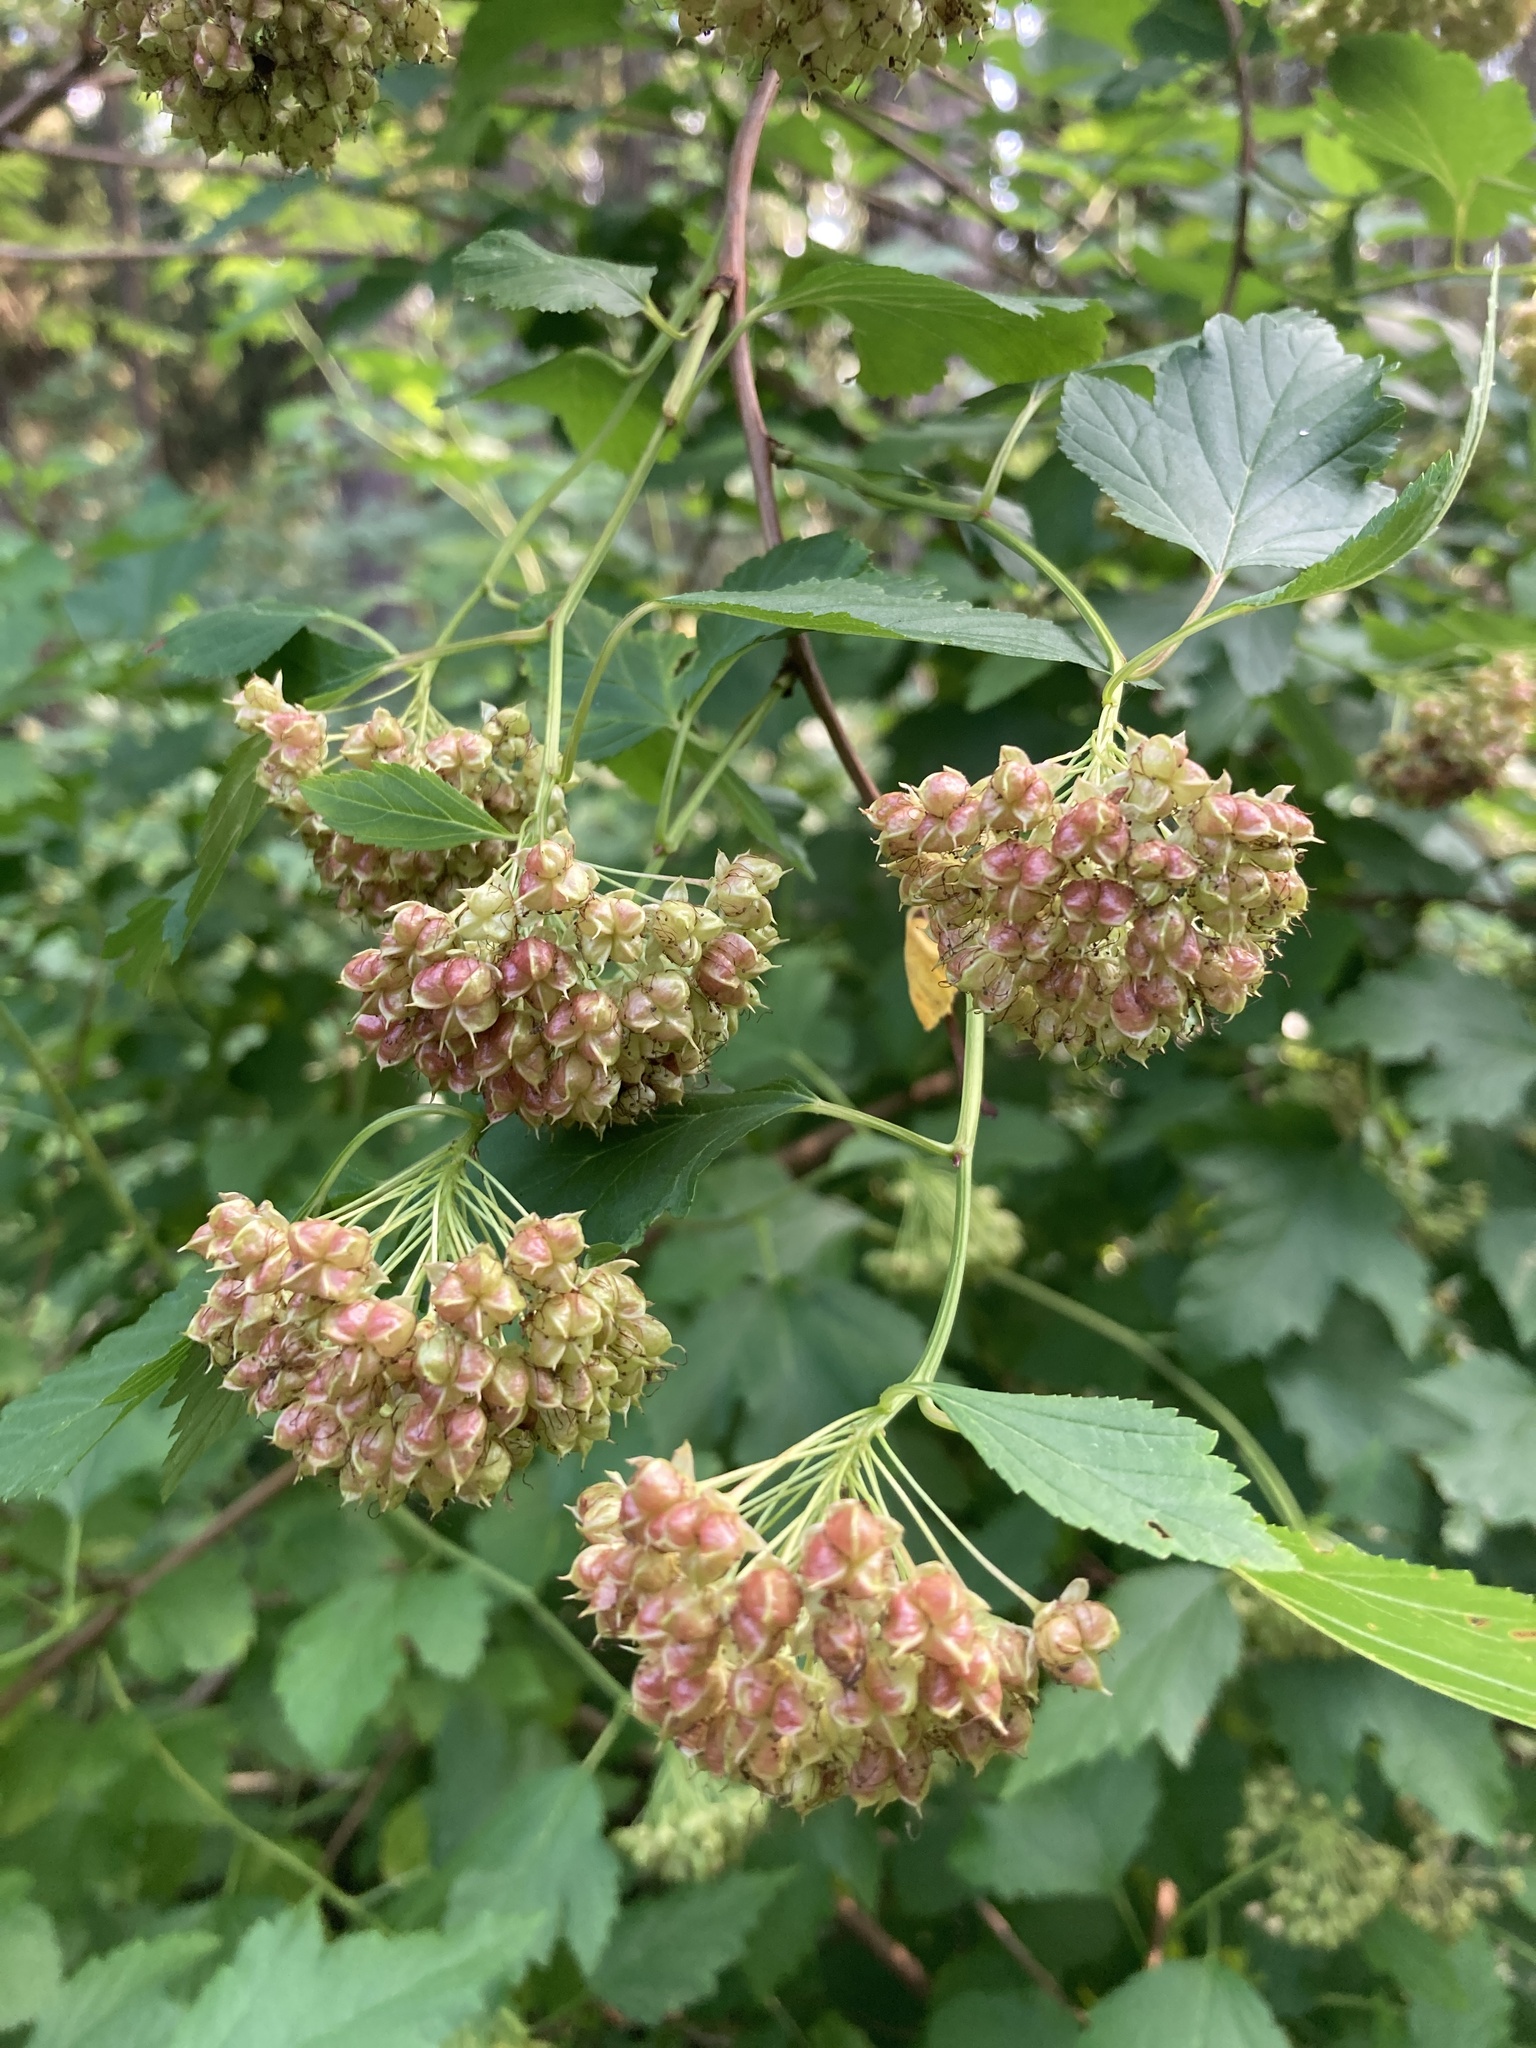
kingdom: Plantae
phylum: Tracheophyta
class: Magnoliopsida
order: Rosales
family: Rosaceae
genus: Physocarpus
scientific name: Physocarpus opulifolius
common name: Ninebark
